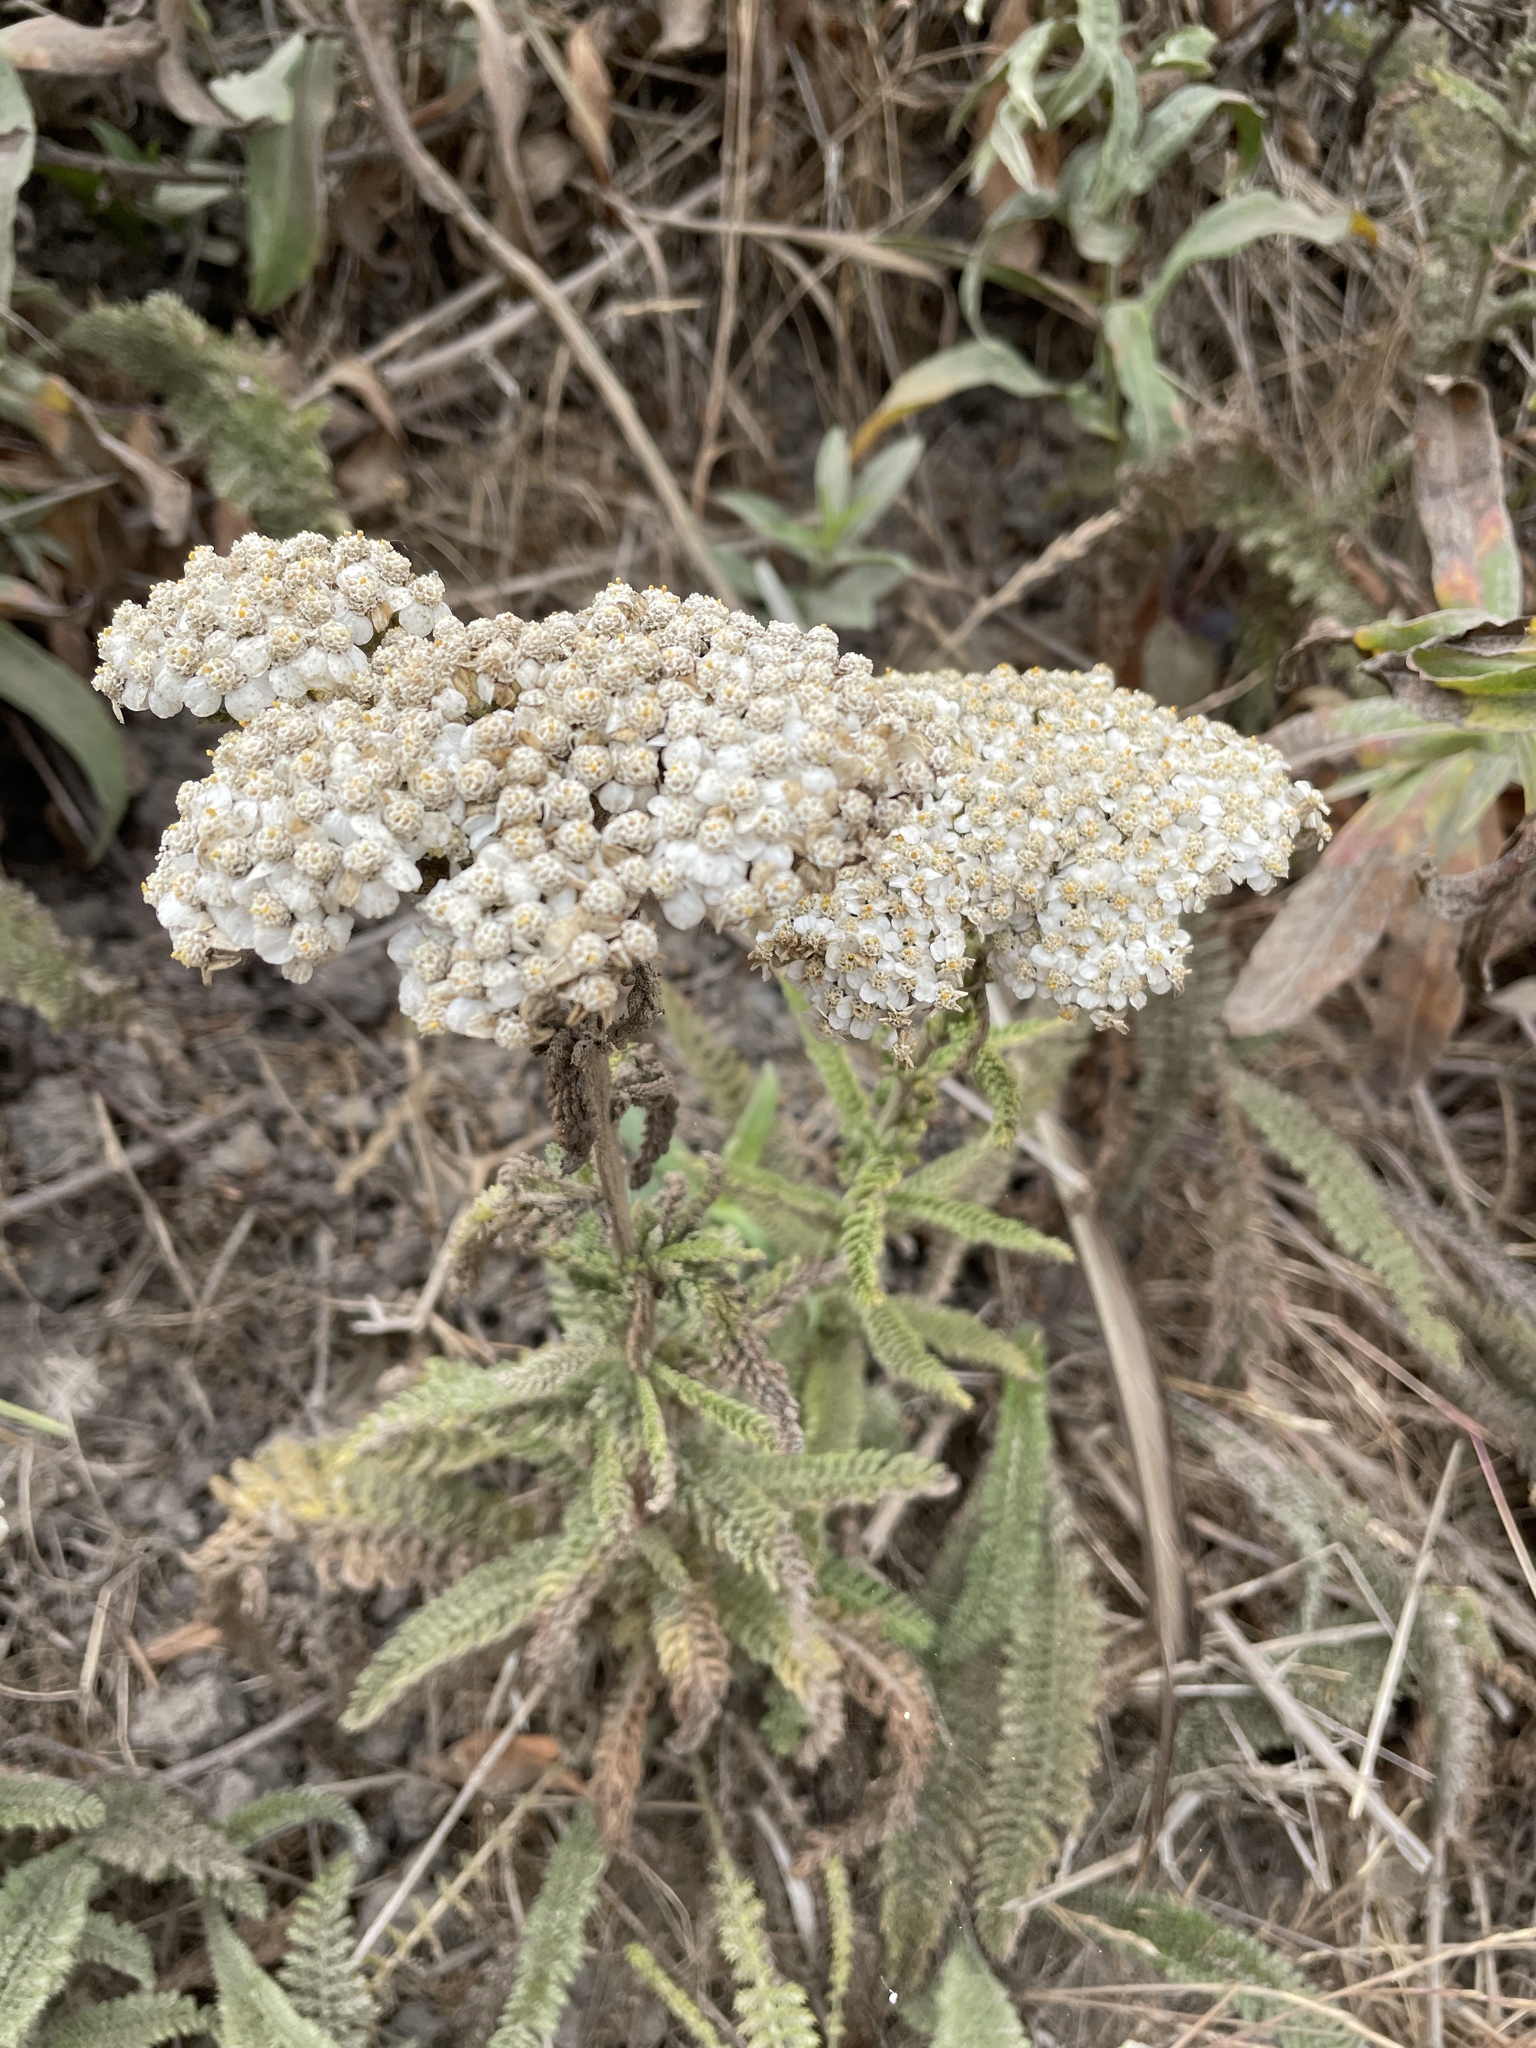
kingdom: Plantae
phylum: Tracheophyta
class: Magnoliopsida
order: Asterales
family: Asteraceae
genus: Achillea
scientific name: Achillea millefolium
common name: Yarrow
